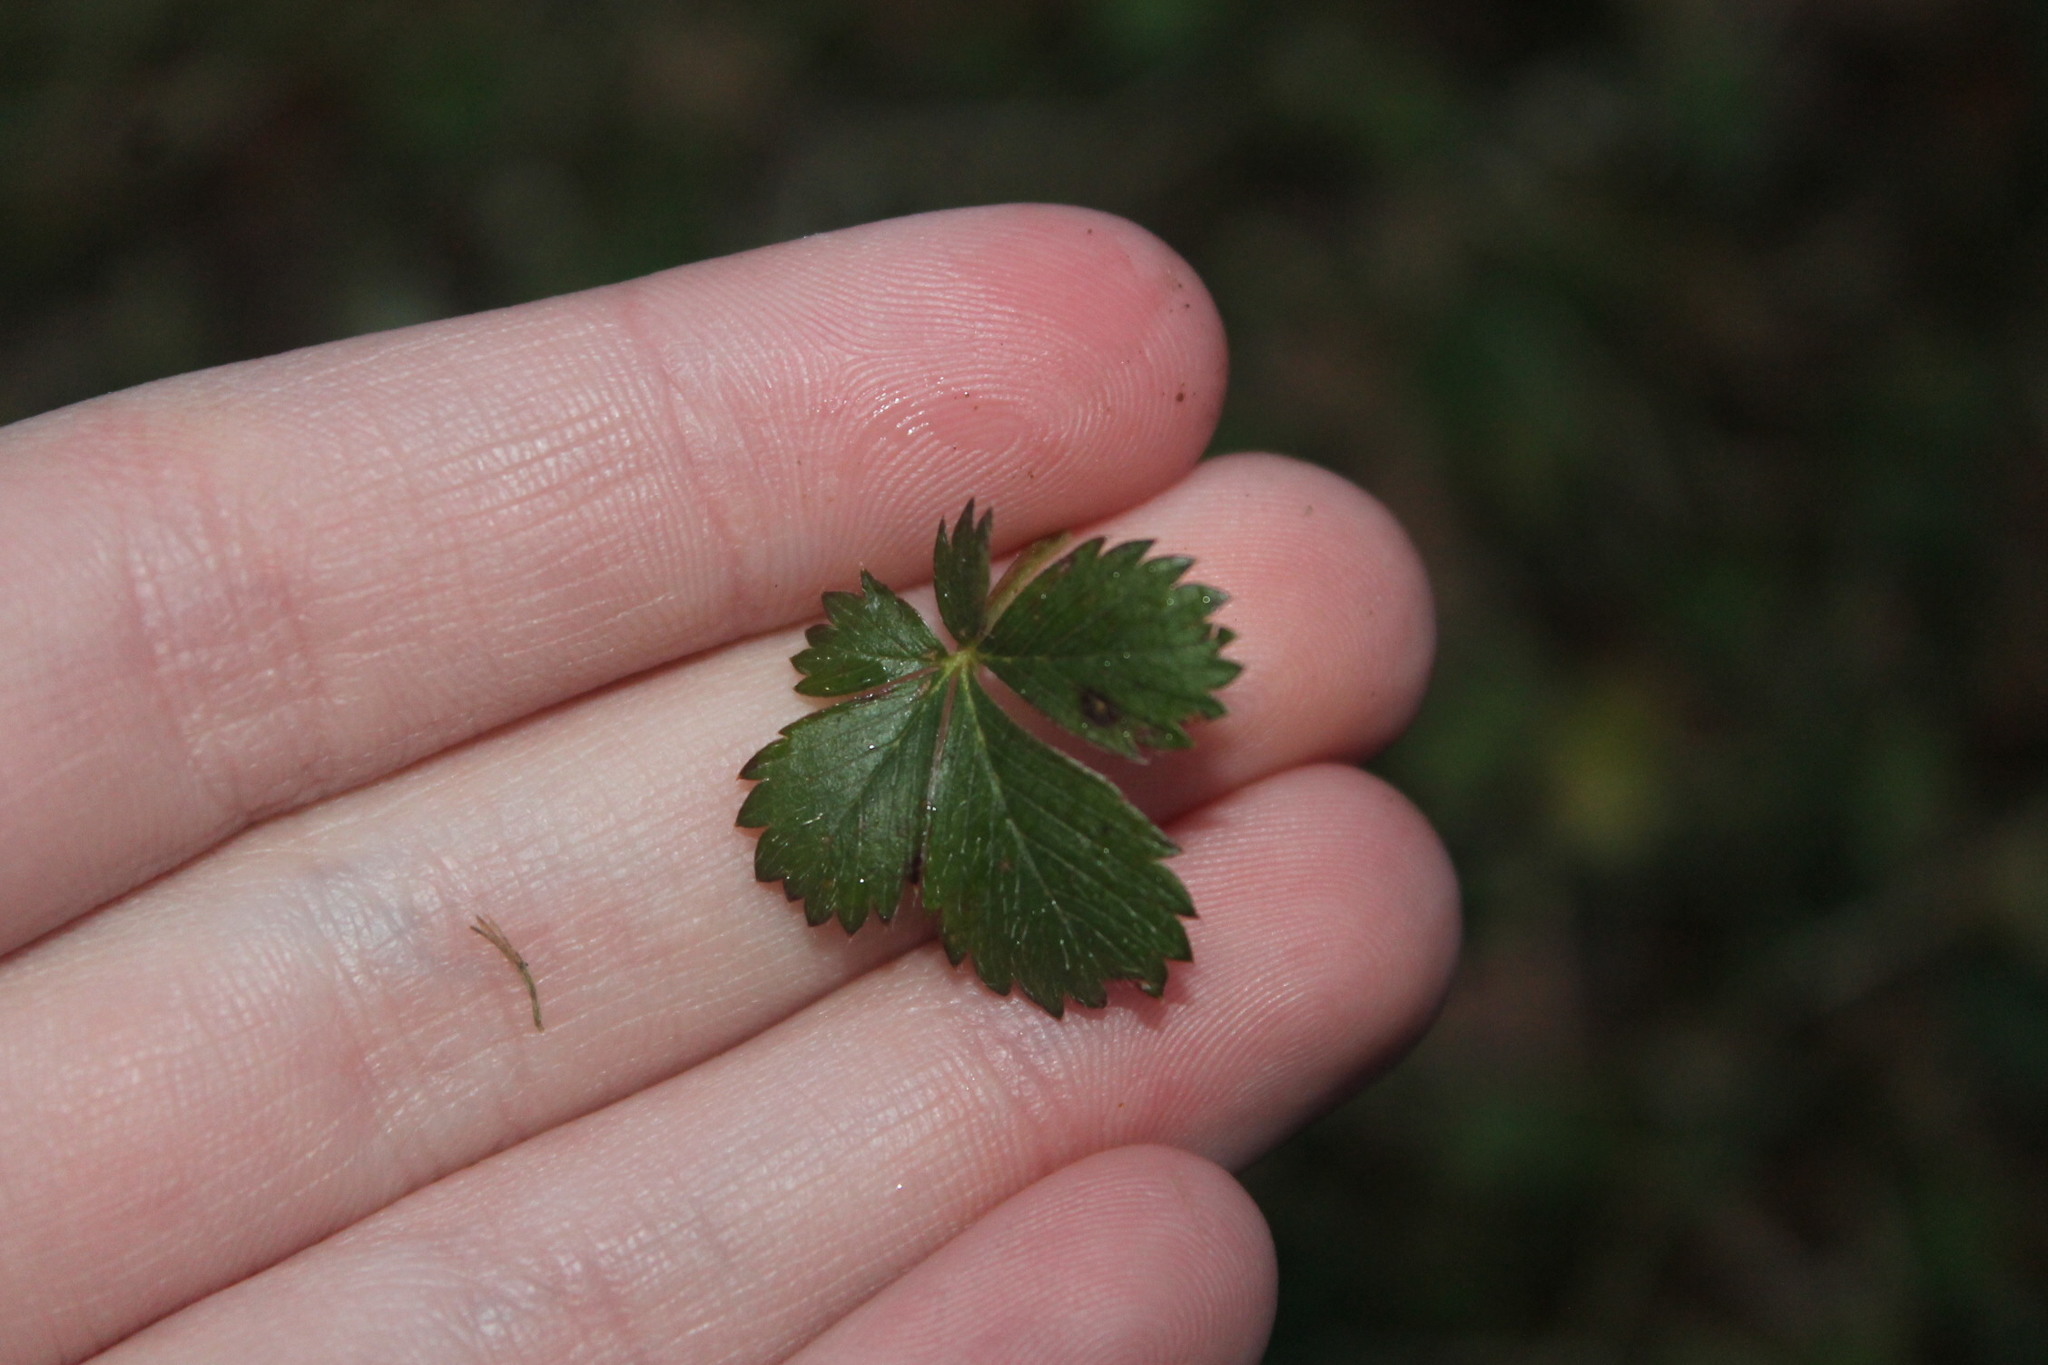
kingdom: Plantae
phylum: Tracheophyta
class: Magnoliopsida
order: Rosales
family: Rosaceae
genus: Potentilla
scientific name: Potentilla canadensis
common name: Canada cinquefoil
